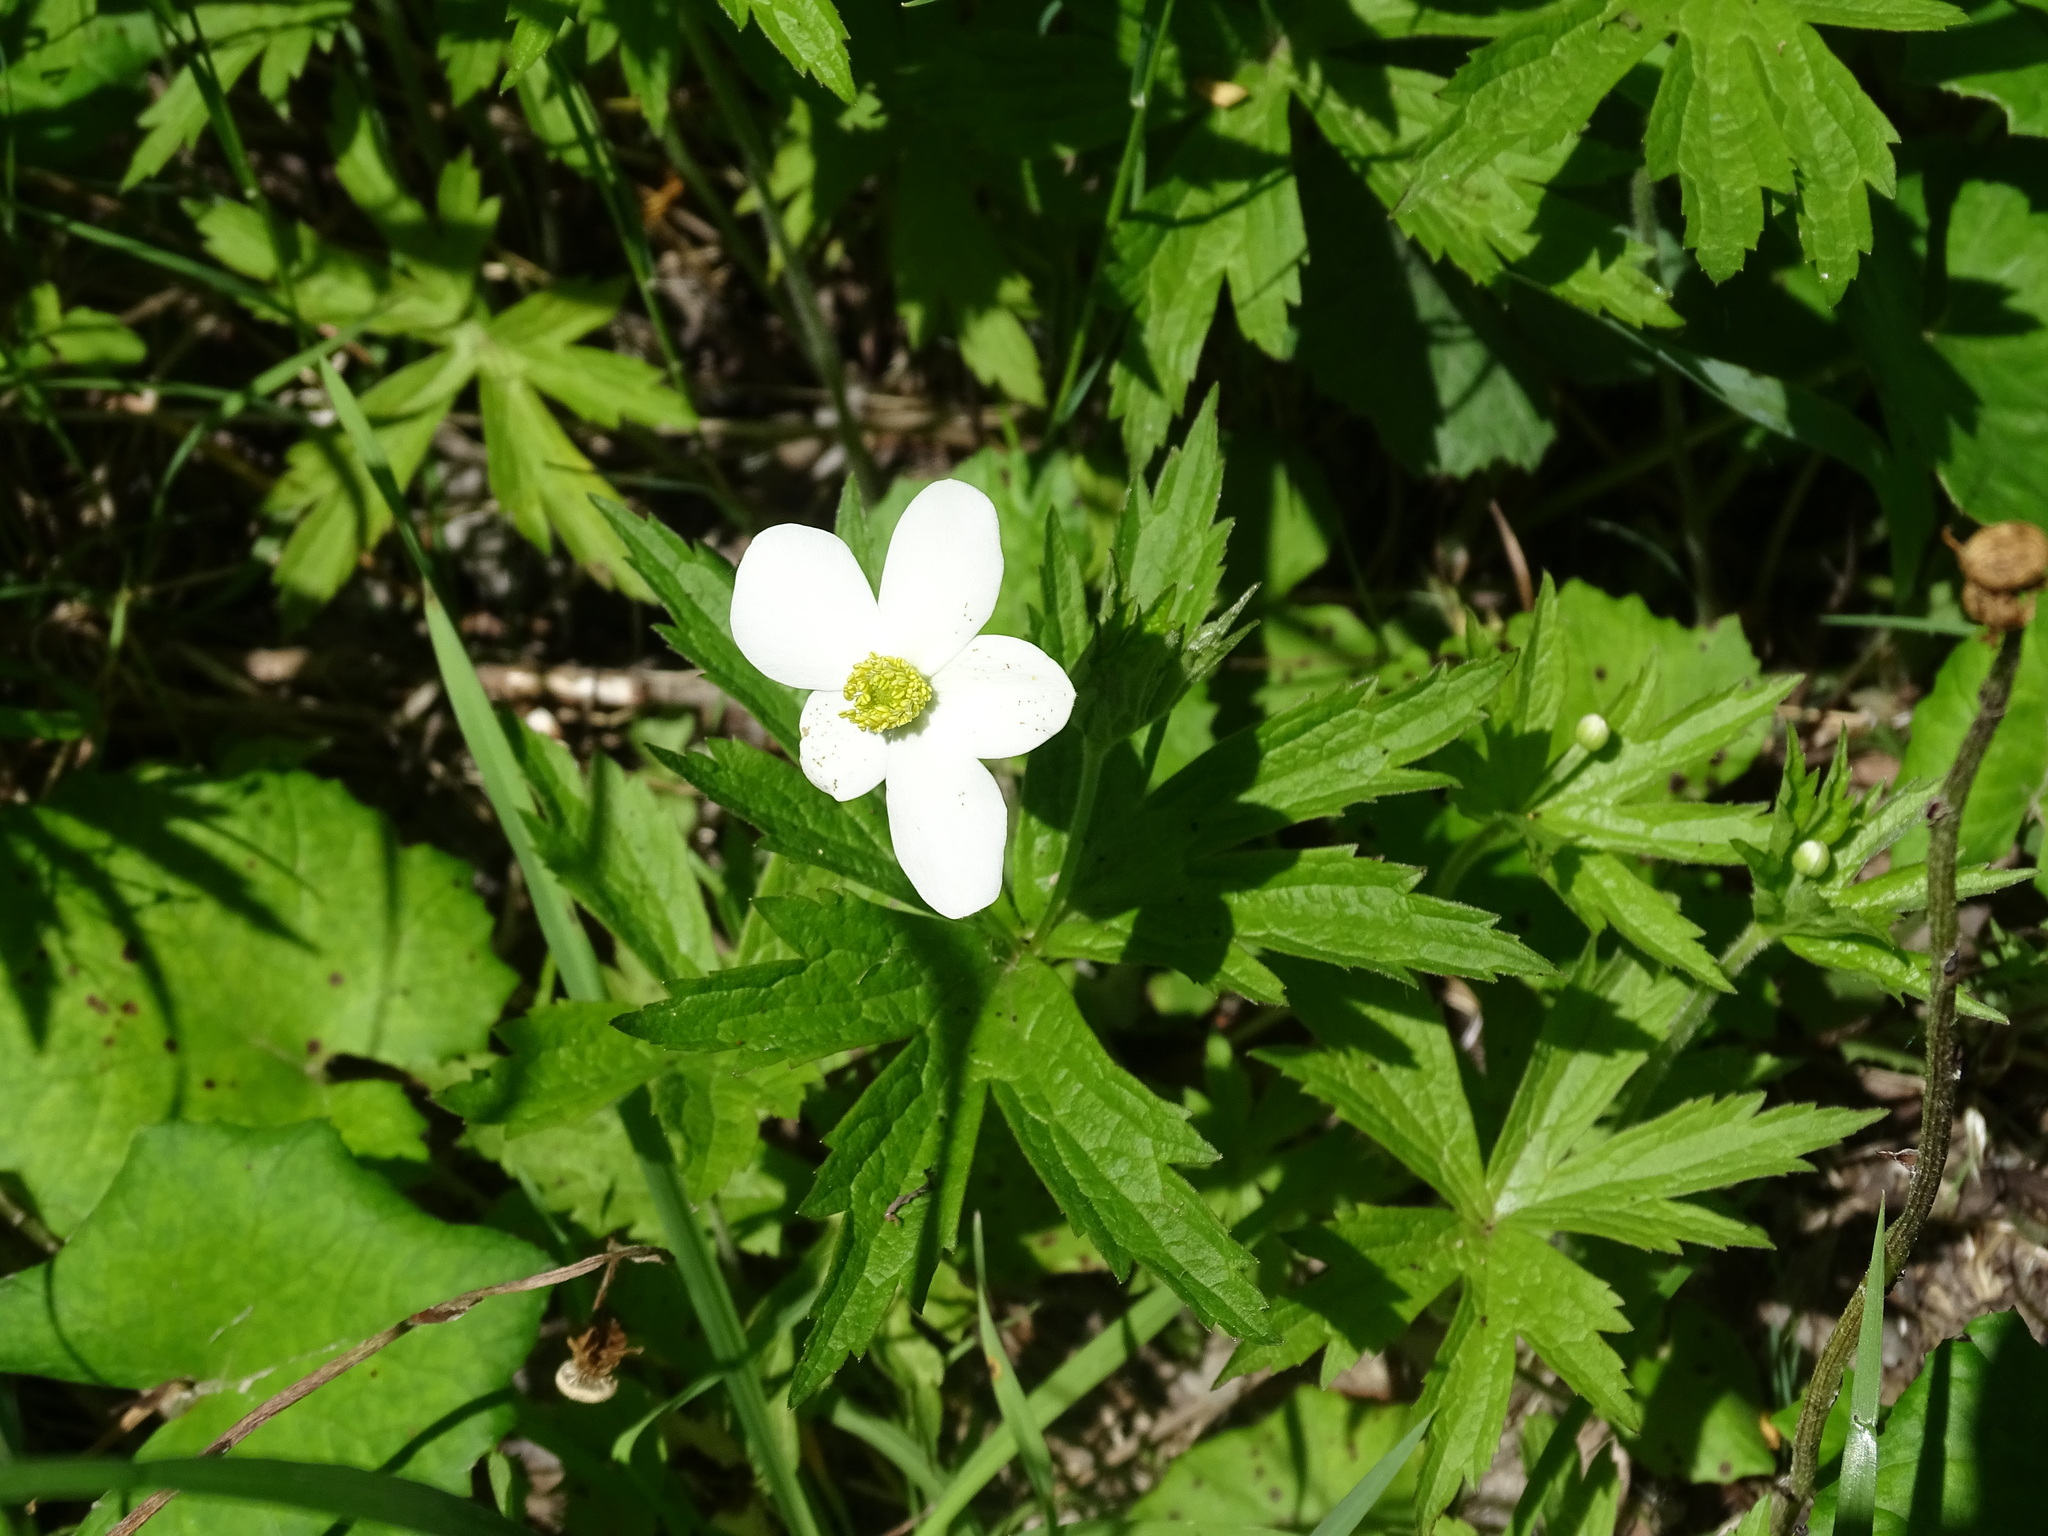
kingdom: Plantae
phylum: Tracheophyta
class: Magnoliopsida
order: Ranunculales
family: Ranunculaceae
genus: Anemonastrum
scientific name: Anemonastrum canadense
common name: Canada anemone
